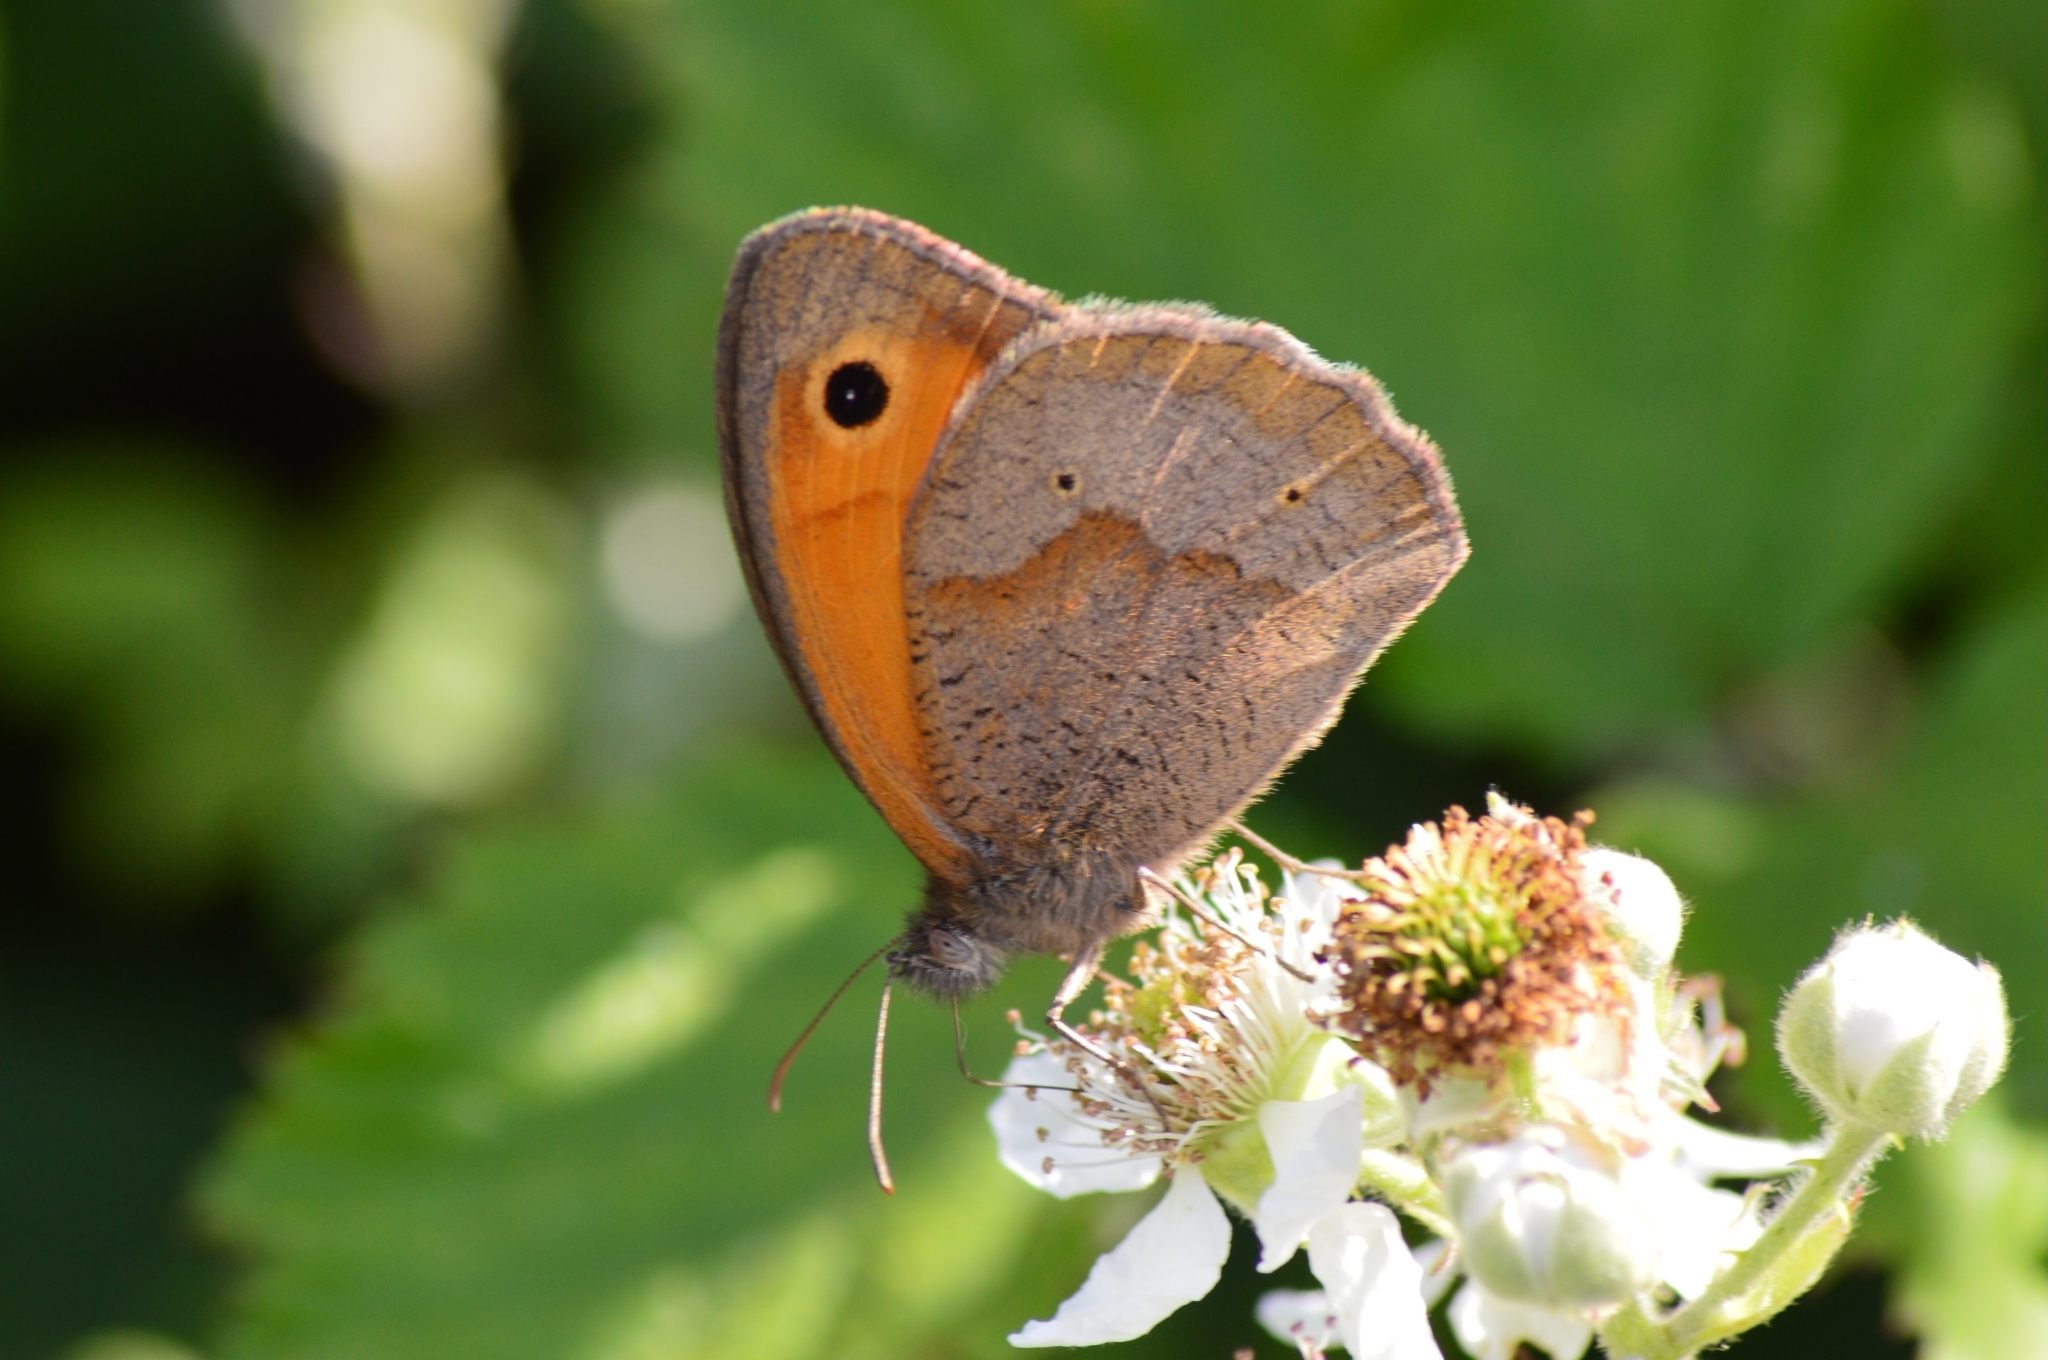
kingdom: Animalia
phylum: Arthropoda
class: Insecta
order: Lepidoptera
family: Nymphalidae
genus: Maniola
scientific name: Maniola jurtina
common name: Meadow brown
